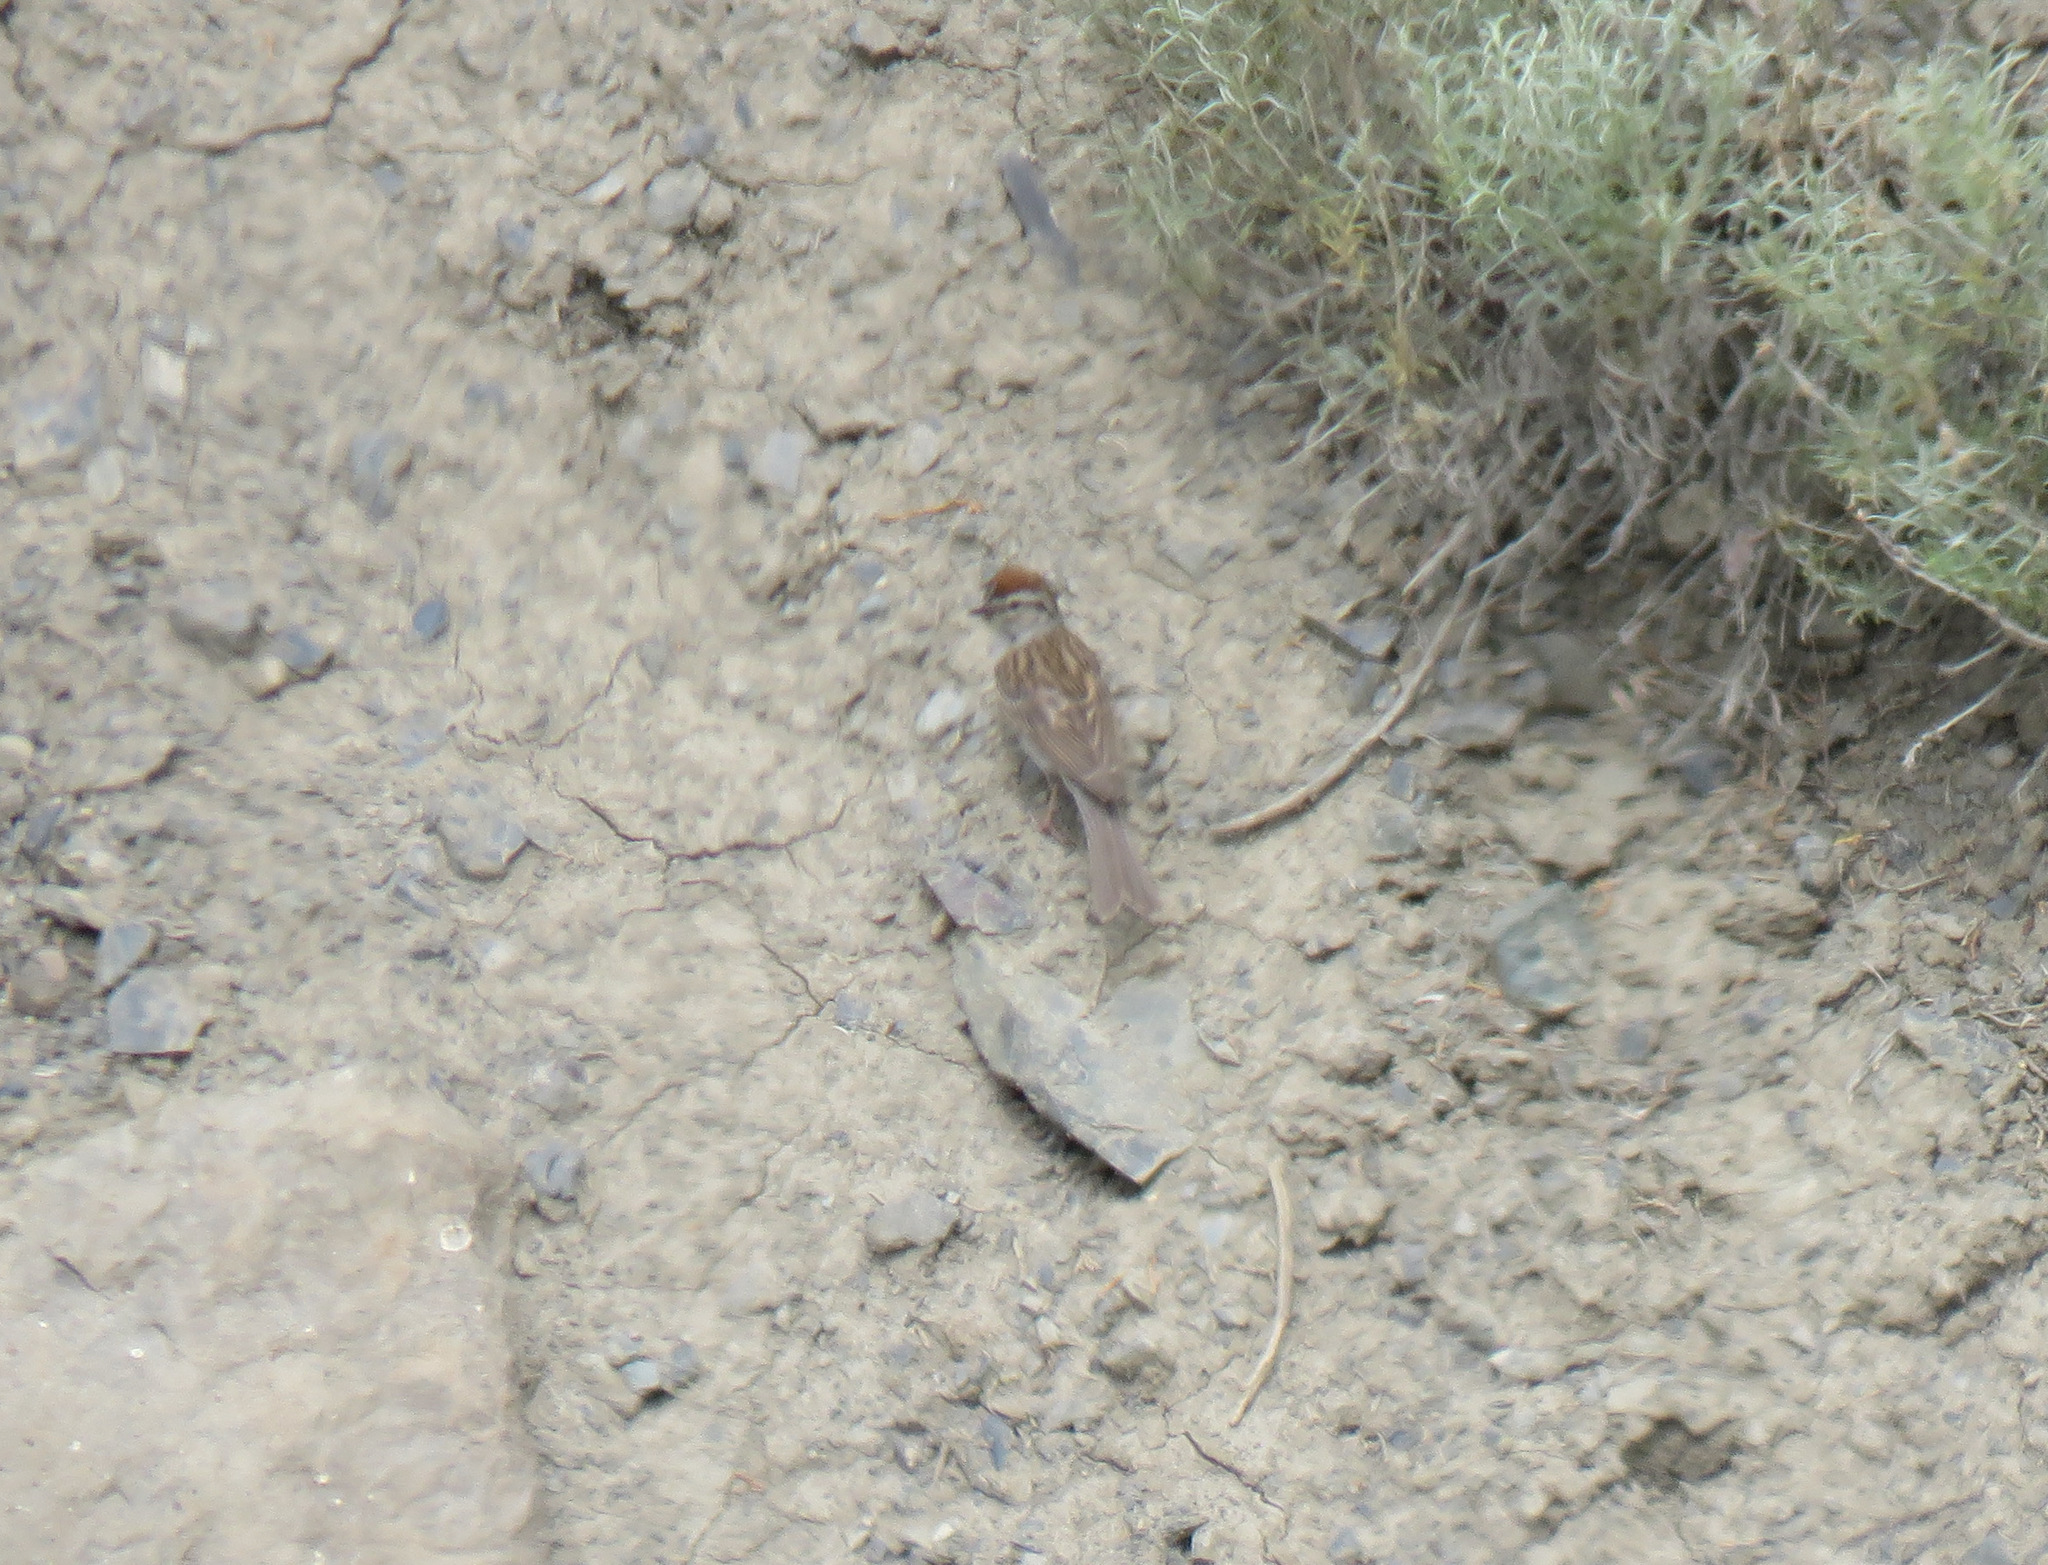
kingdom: Animalia
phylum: Chordata
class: Aves
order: Passeriformes
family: Passerellidae
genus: Spizella
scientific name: Spizella passerina
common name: Chipping sparrow
